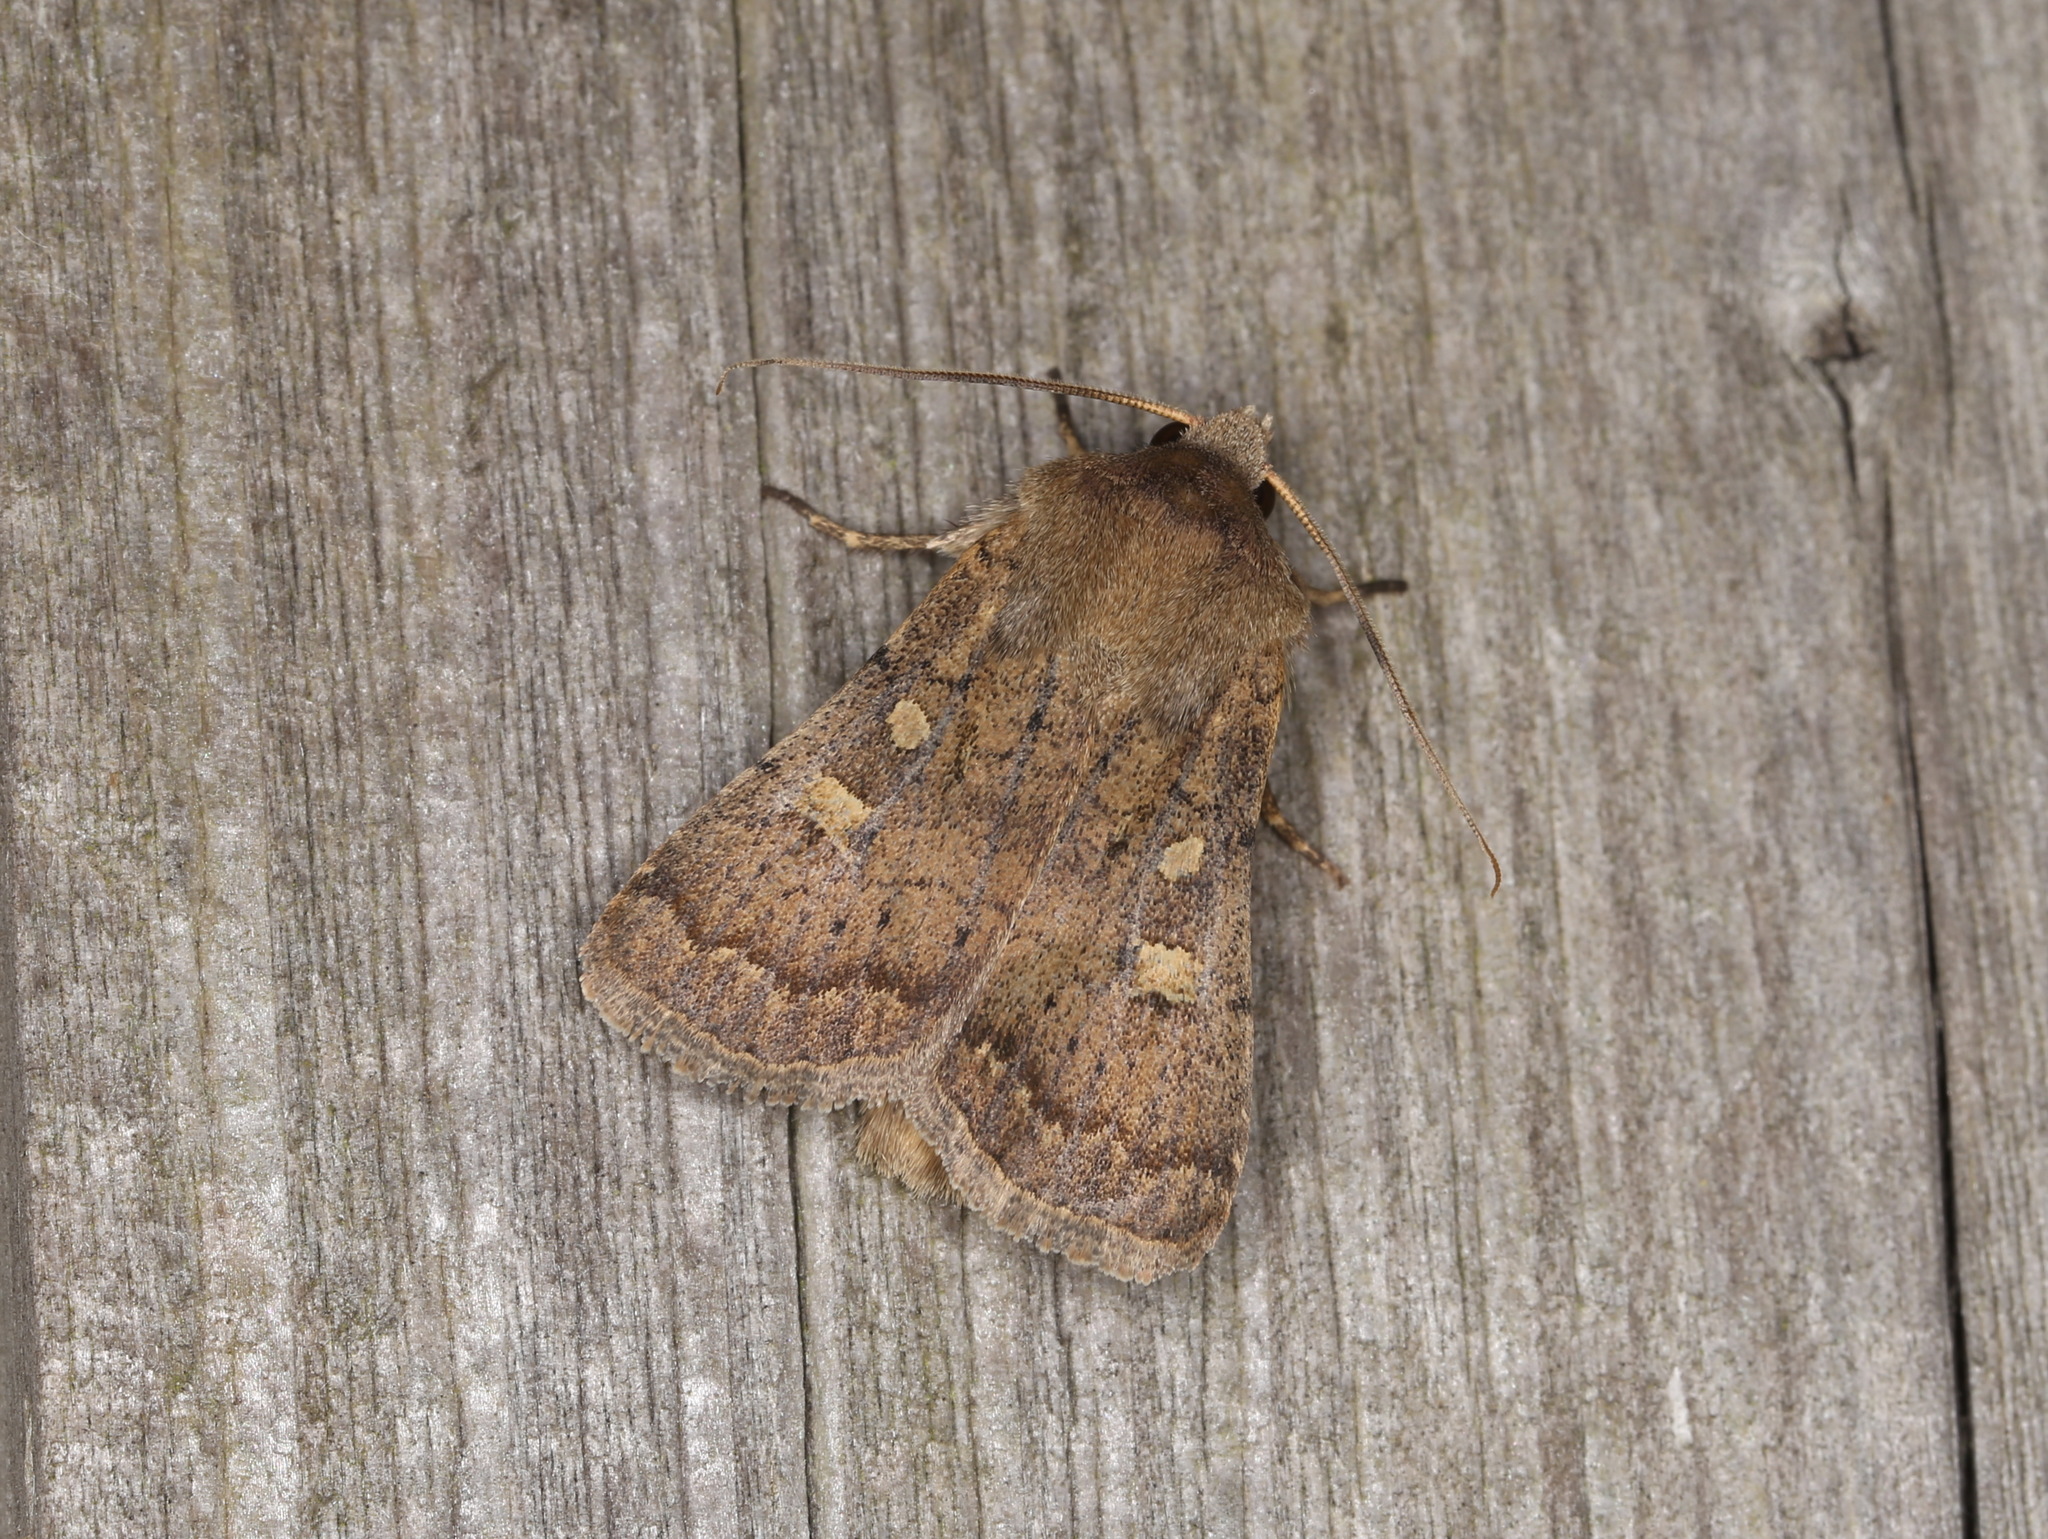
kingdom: Animalia
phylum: Arthropoda
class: Insecta
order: Lepidoptera
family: Noctuidae
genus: Xestia
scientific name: Xestia xanthographa
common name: Square-spot rustic
